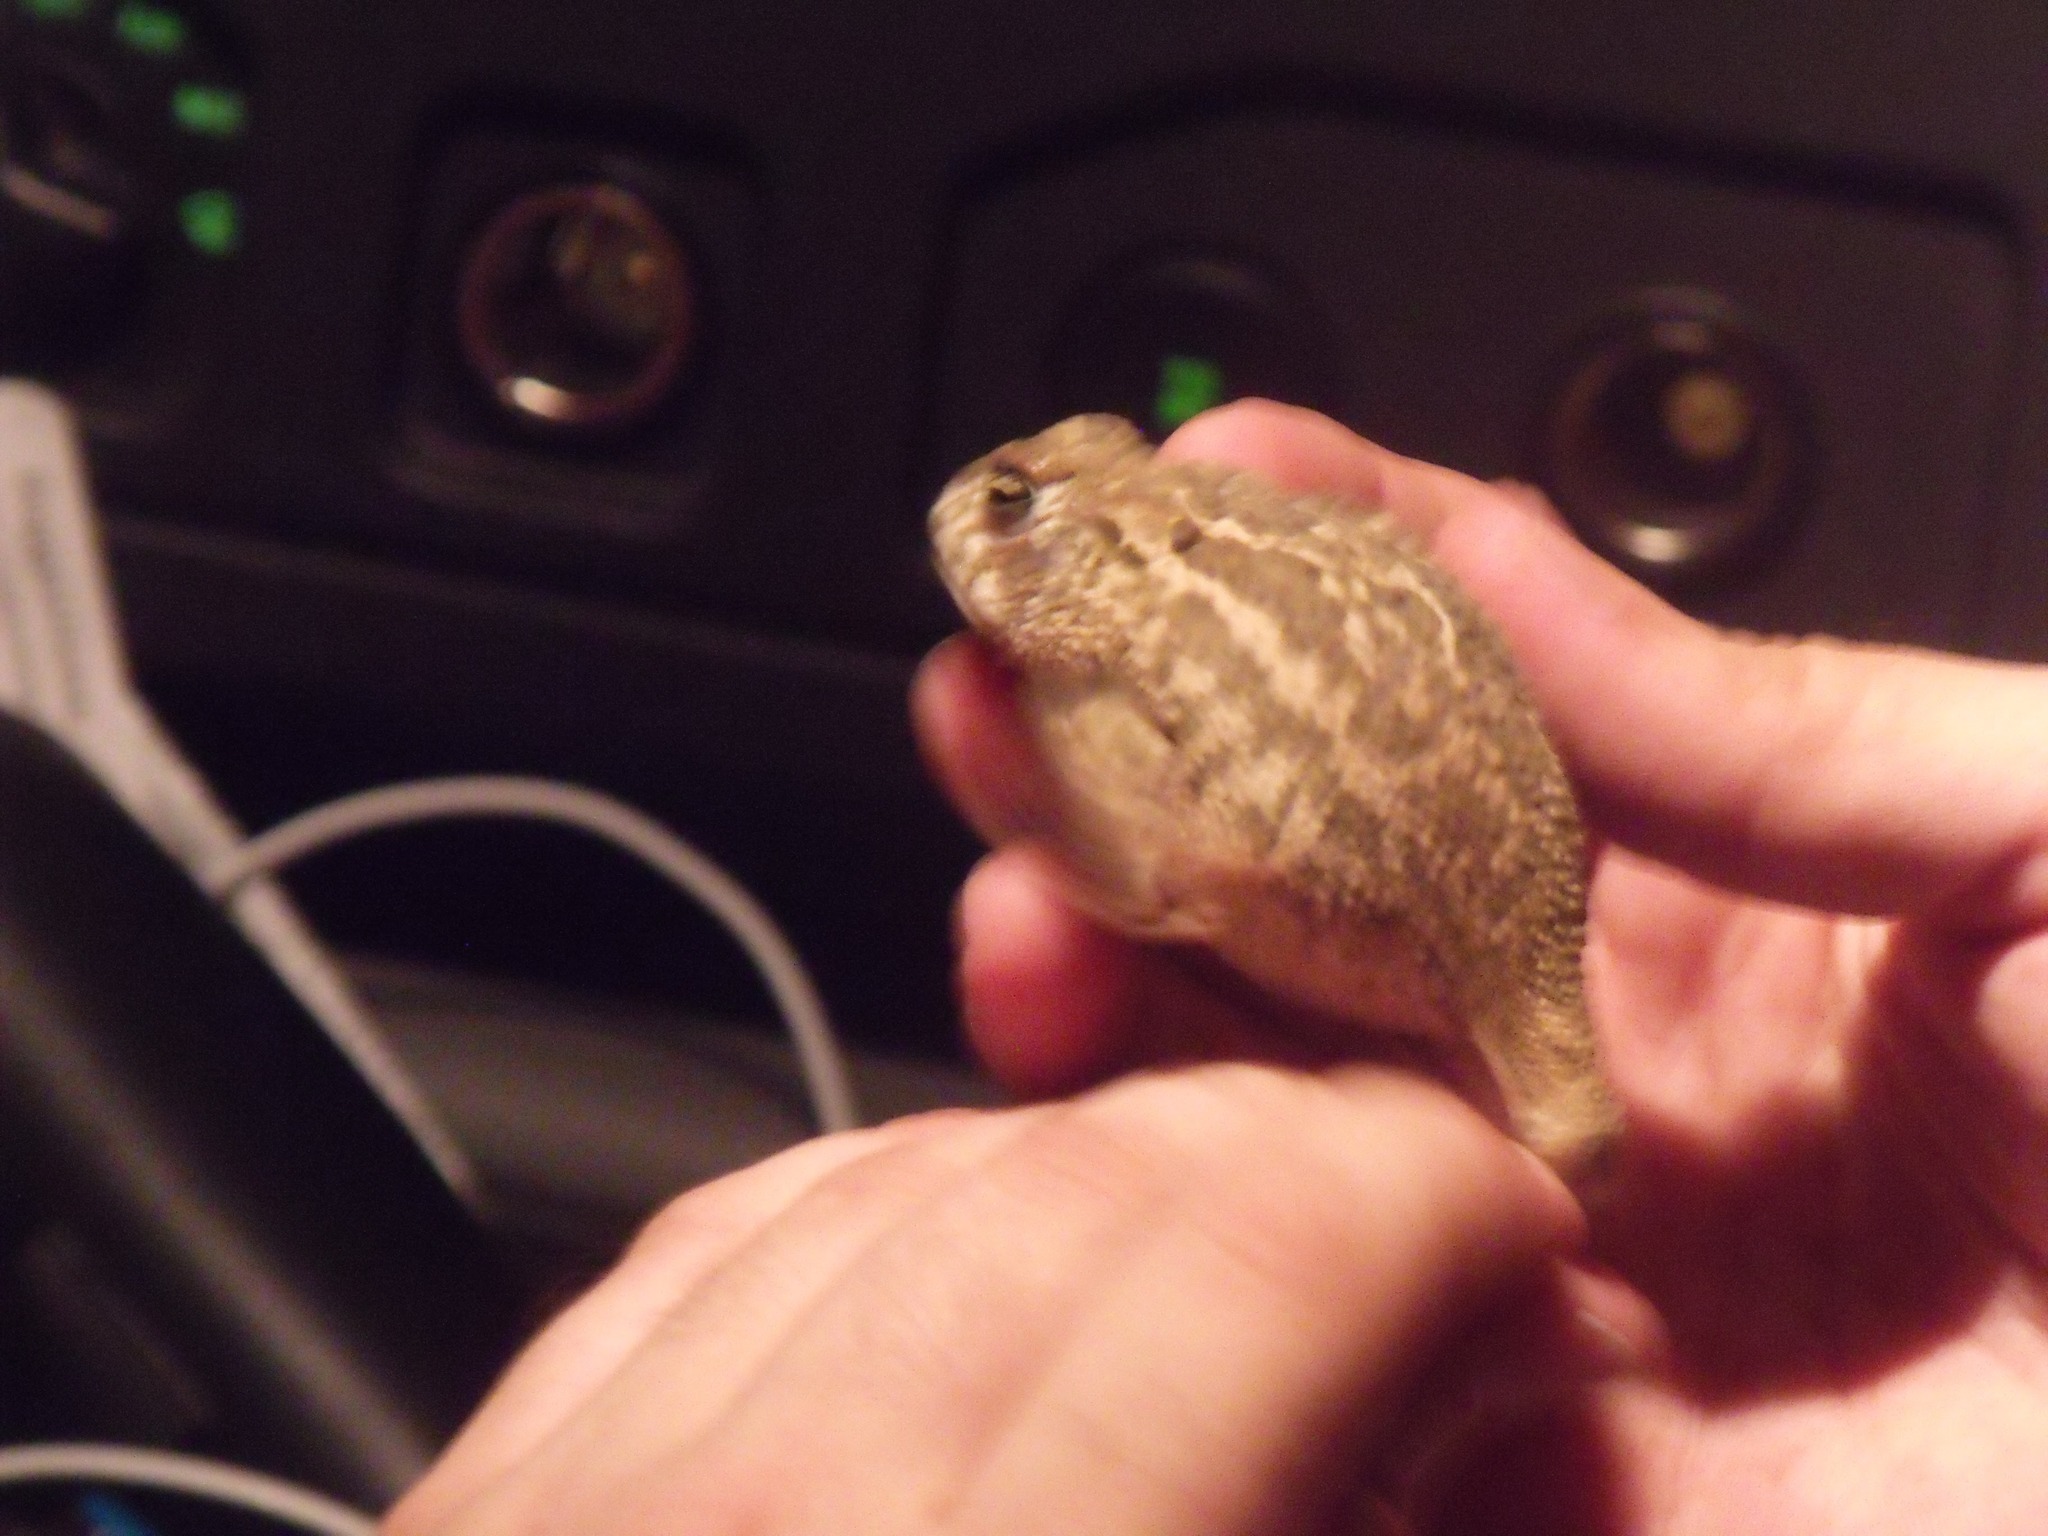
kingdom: Animalia
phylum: Chordata
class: Amphibia
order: Anura
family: Bufonidae
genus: Anaxyrus
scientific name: Anaxyrus cognatus
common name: Great plains toad
